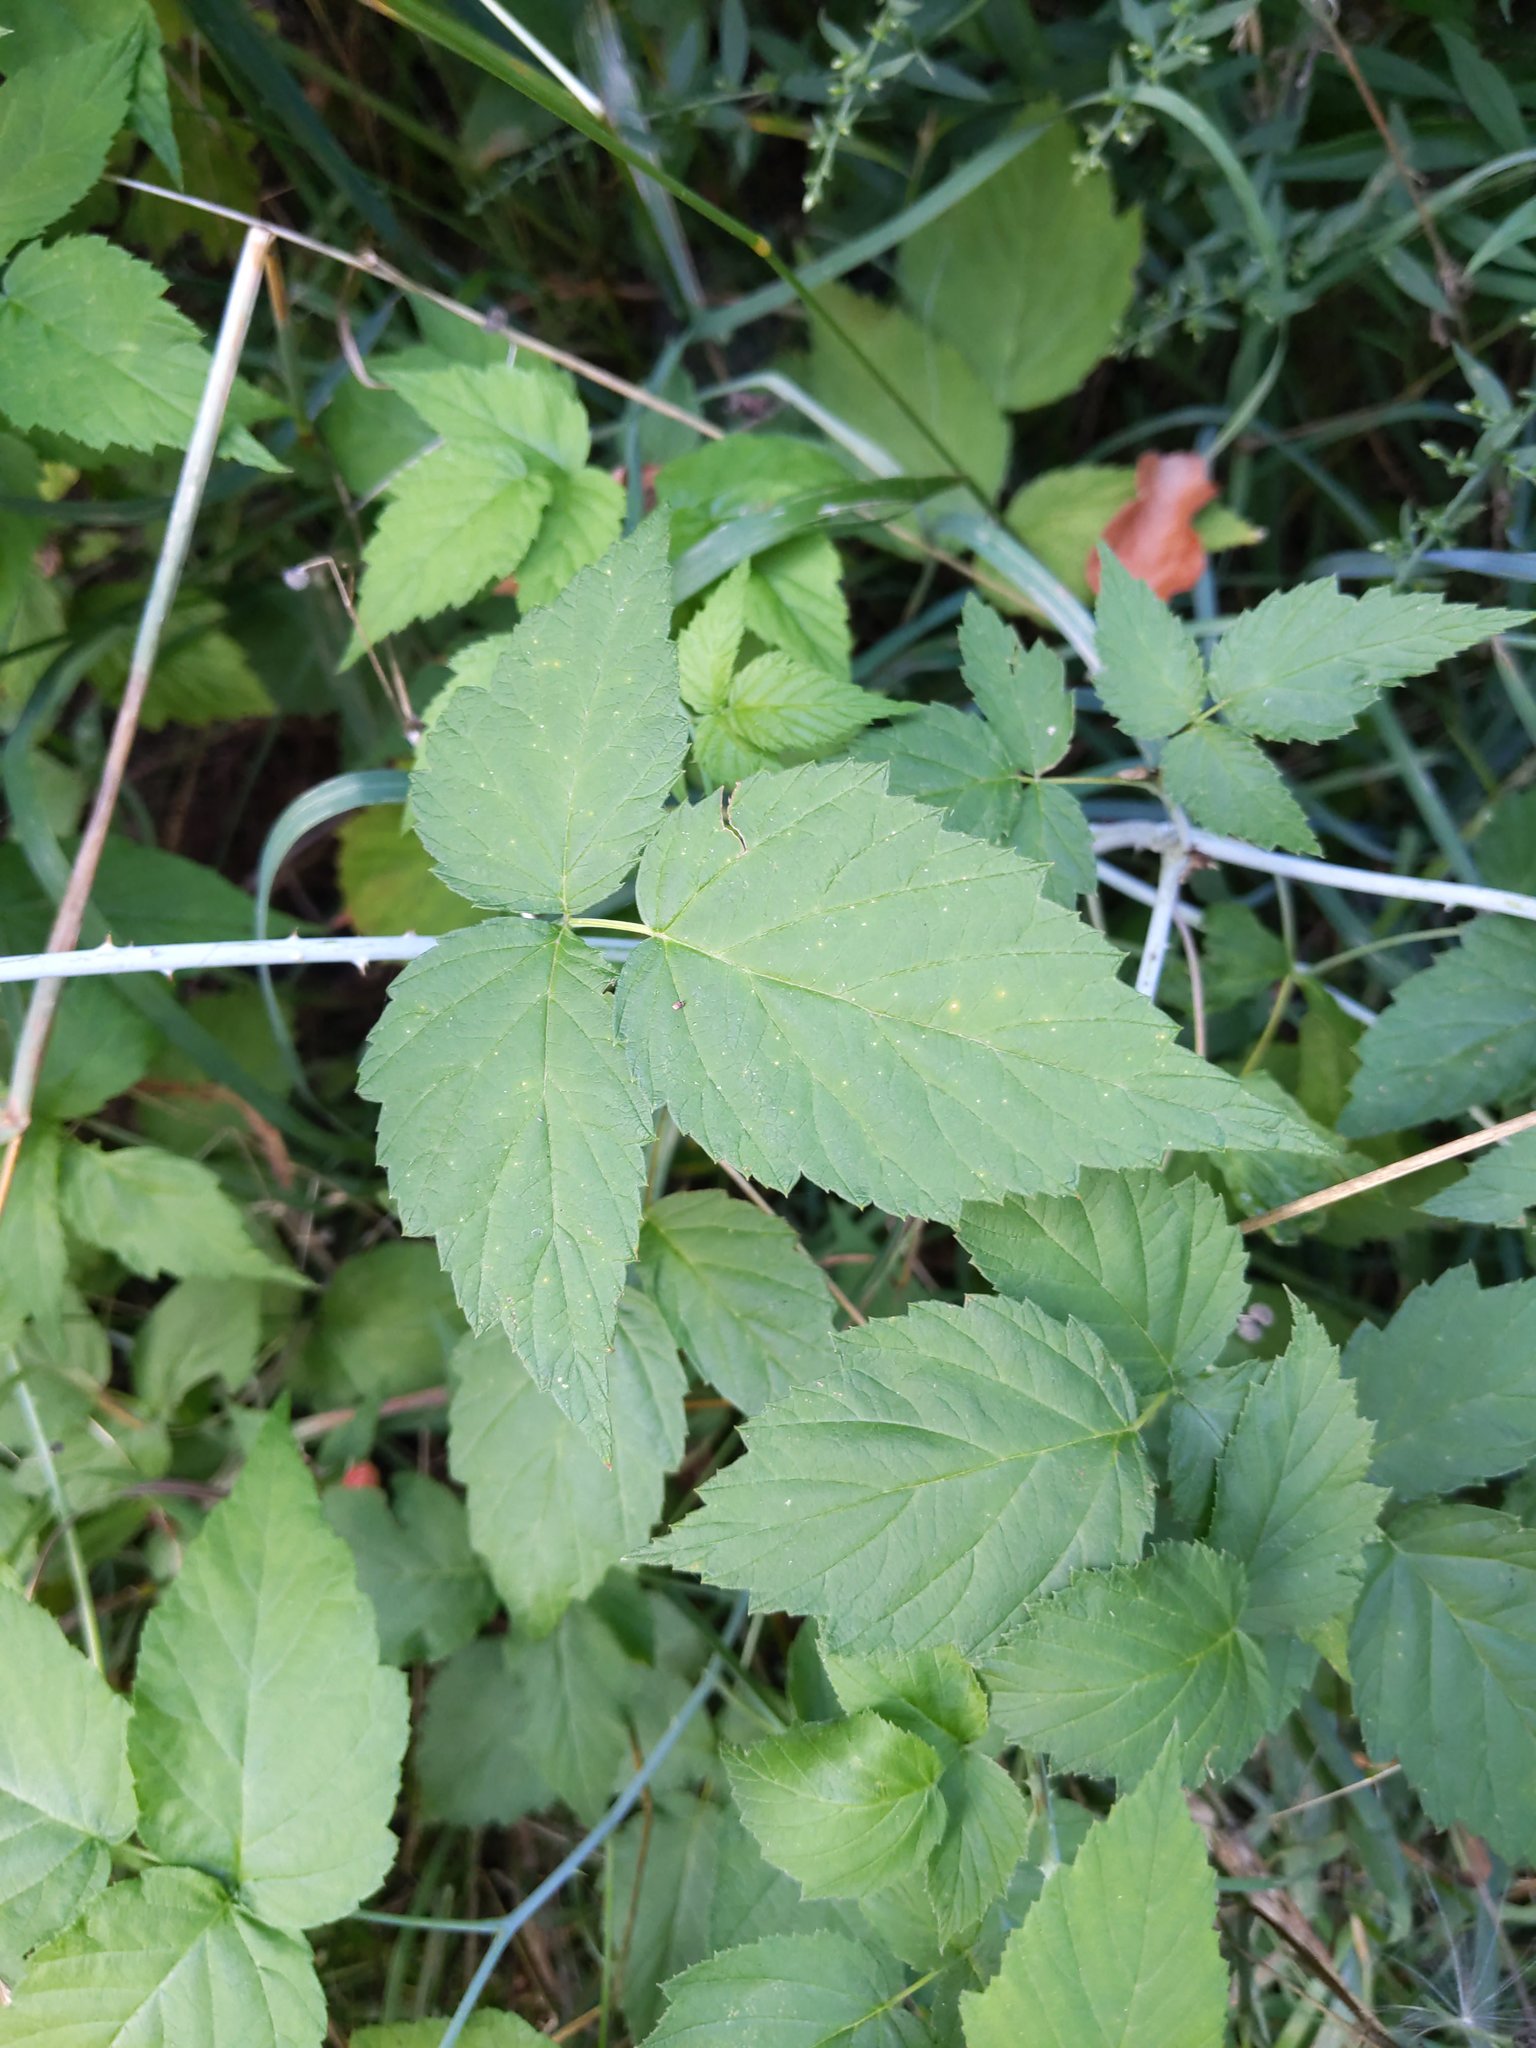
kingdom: Plantae
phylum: Tracheophyta
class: Magnoliopsida
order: Rosales
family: Rosaceae
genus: Rubus
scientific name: Rubus occidentalis
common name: Black raspberry
